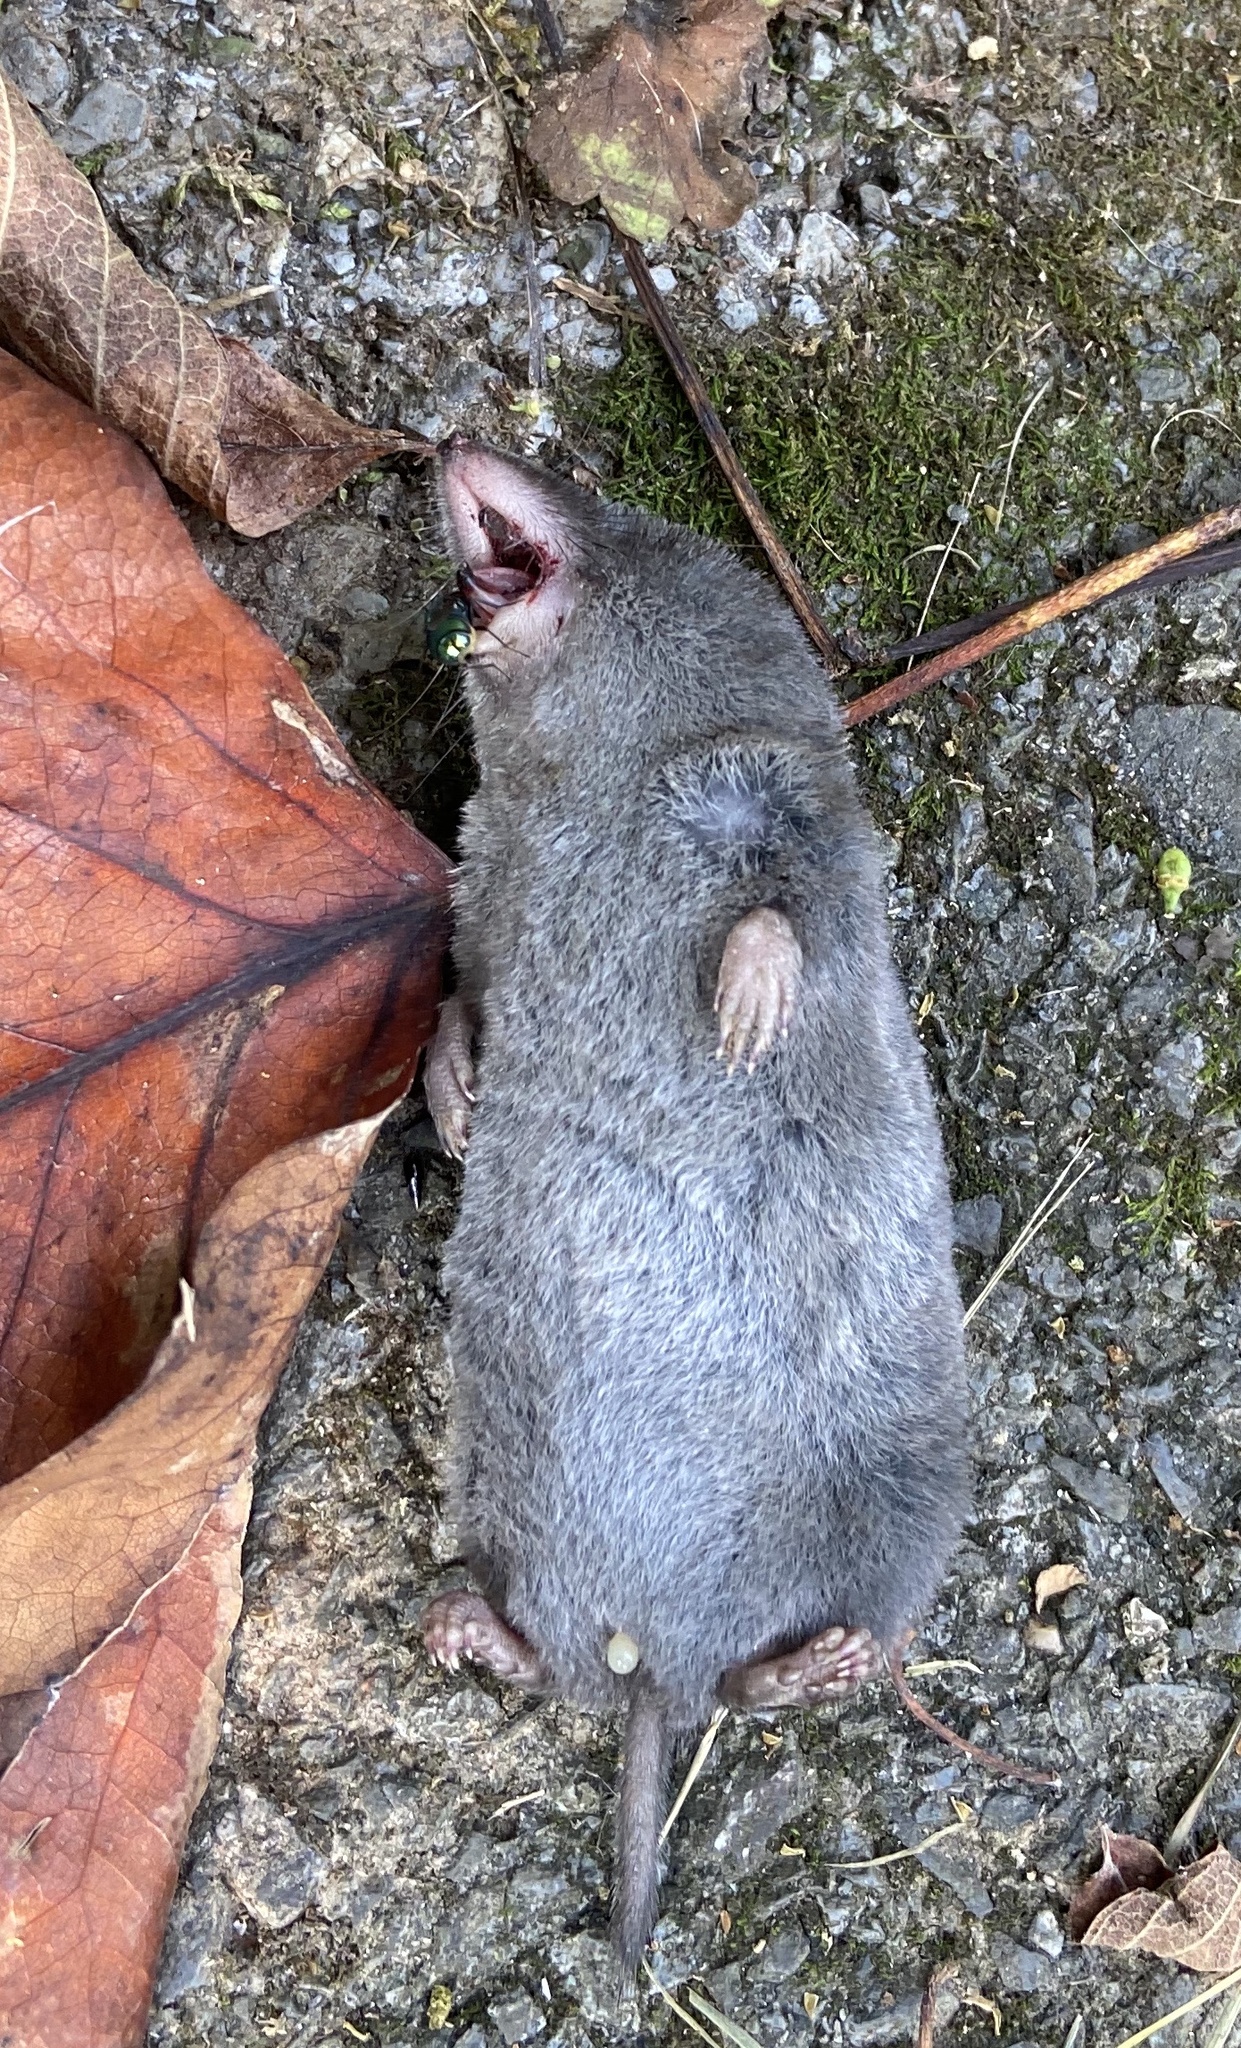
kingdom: Animalia
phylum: Chordata
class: Mammalia
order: Soricomorpha
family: Soricidae
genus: Blarina
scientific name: Blarina brevicauda
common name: Northern short-tailed shrew
